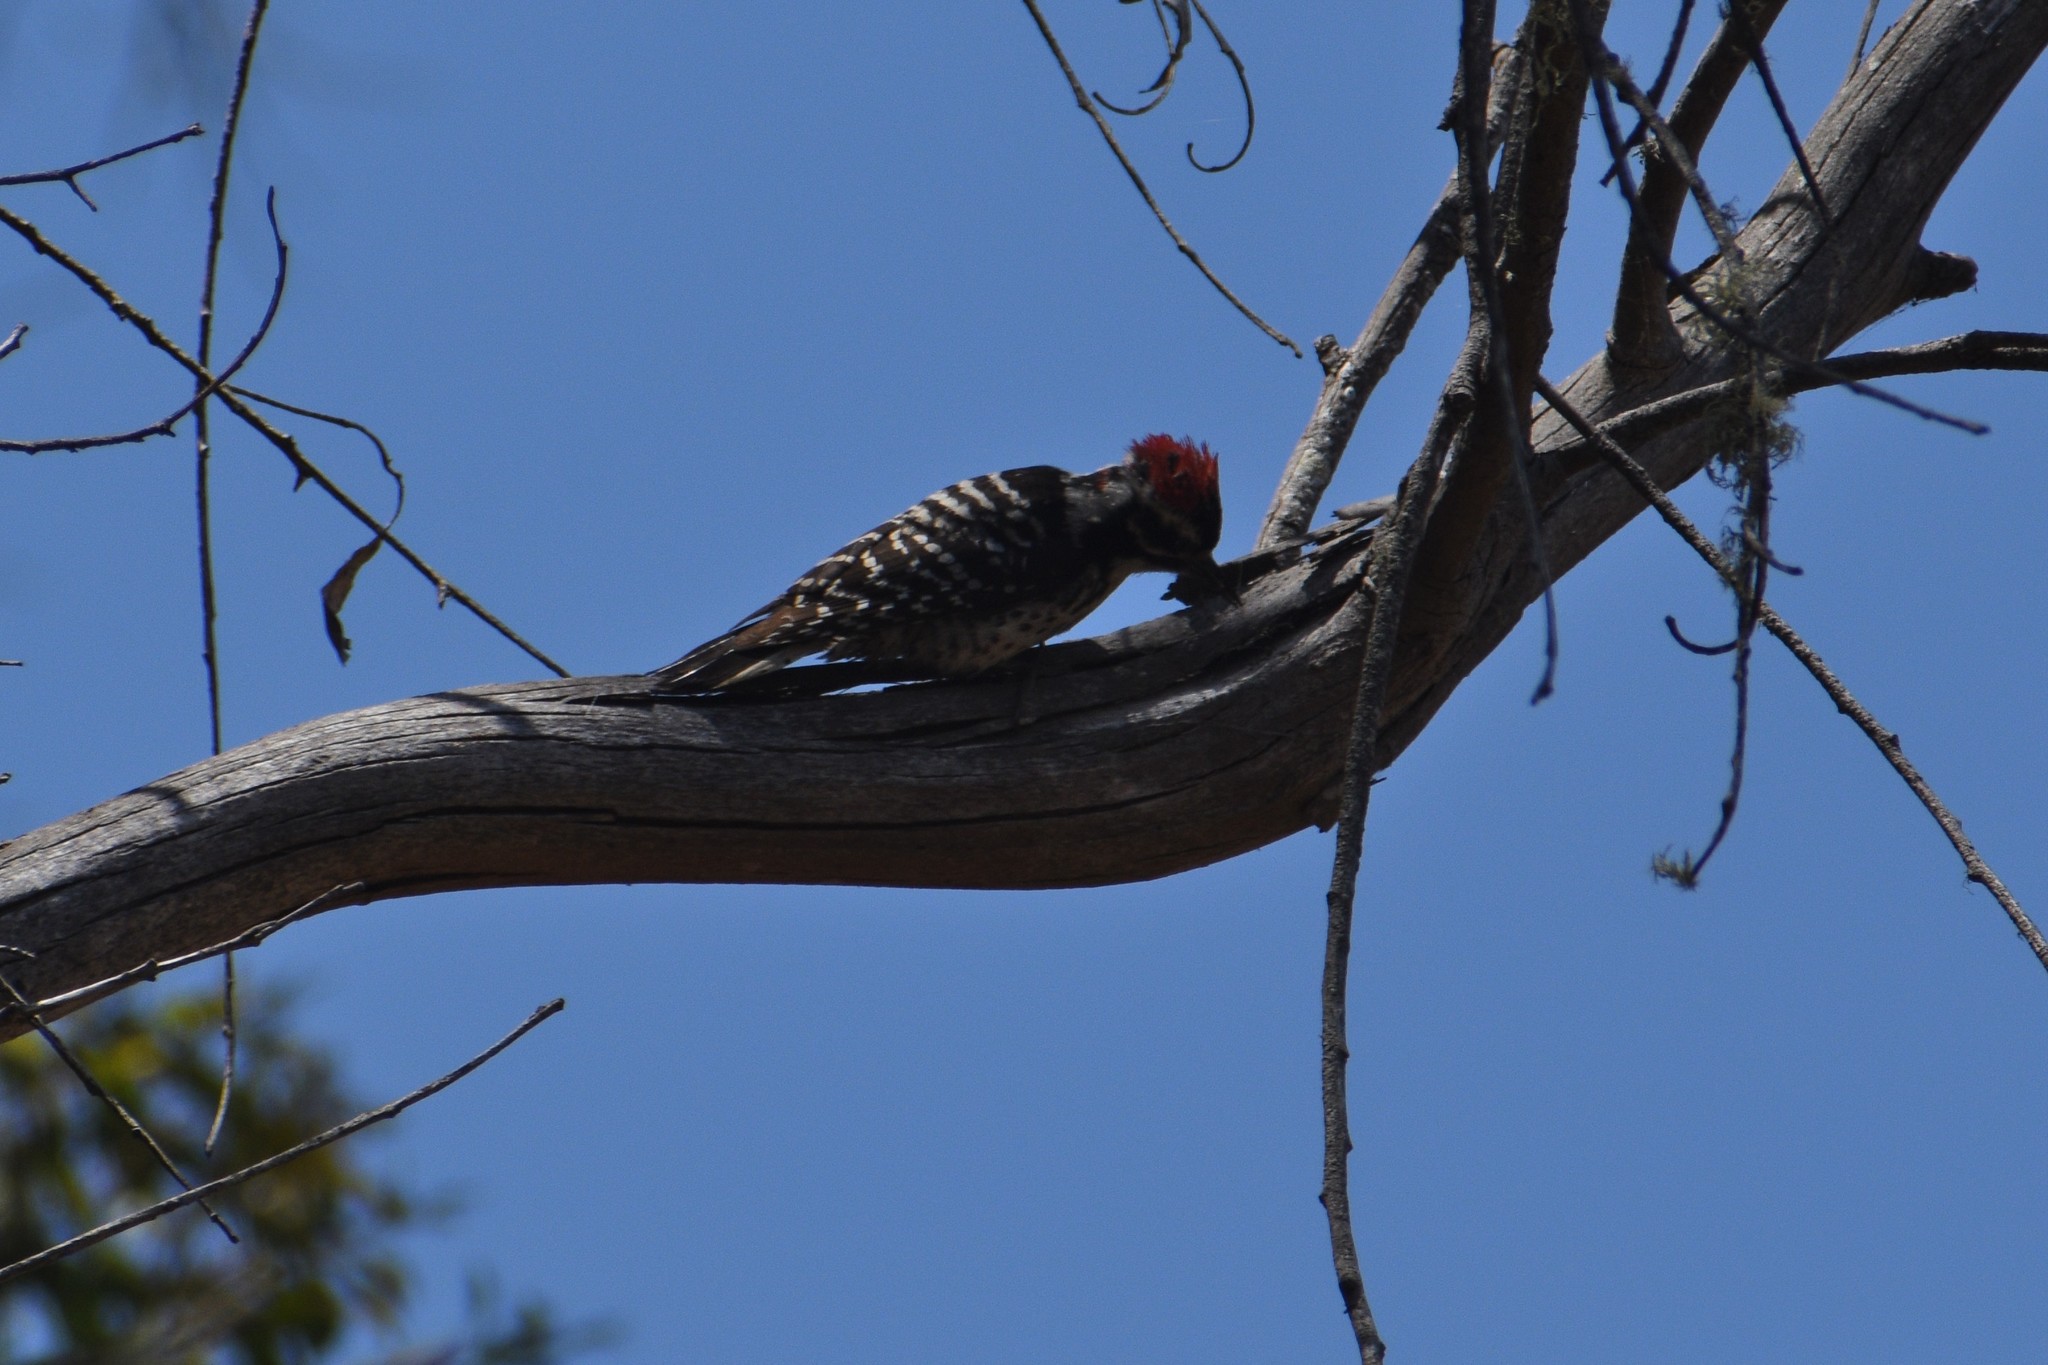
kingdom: Animalia
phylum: Chordata
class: Aves
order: Piciformes
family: Picidae
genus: Dryobates
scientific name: Dryobates nuttallii
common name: Nuttall's woodpecker
